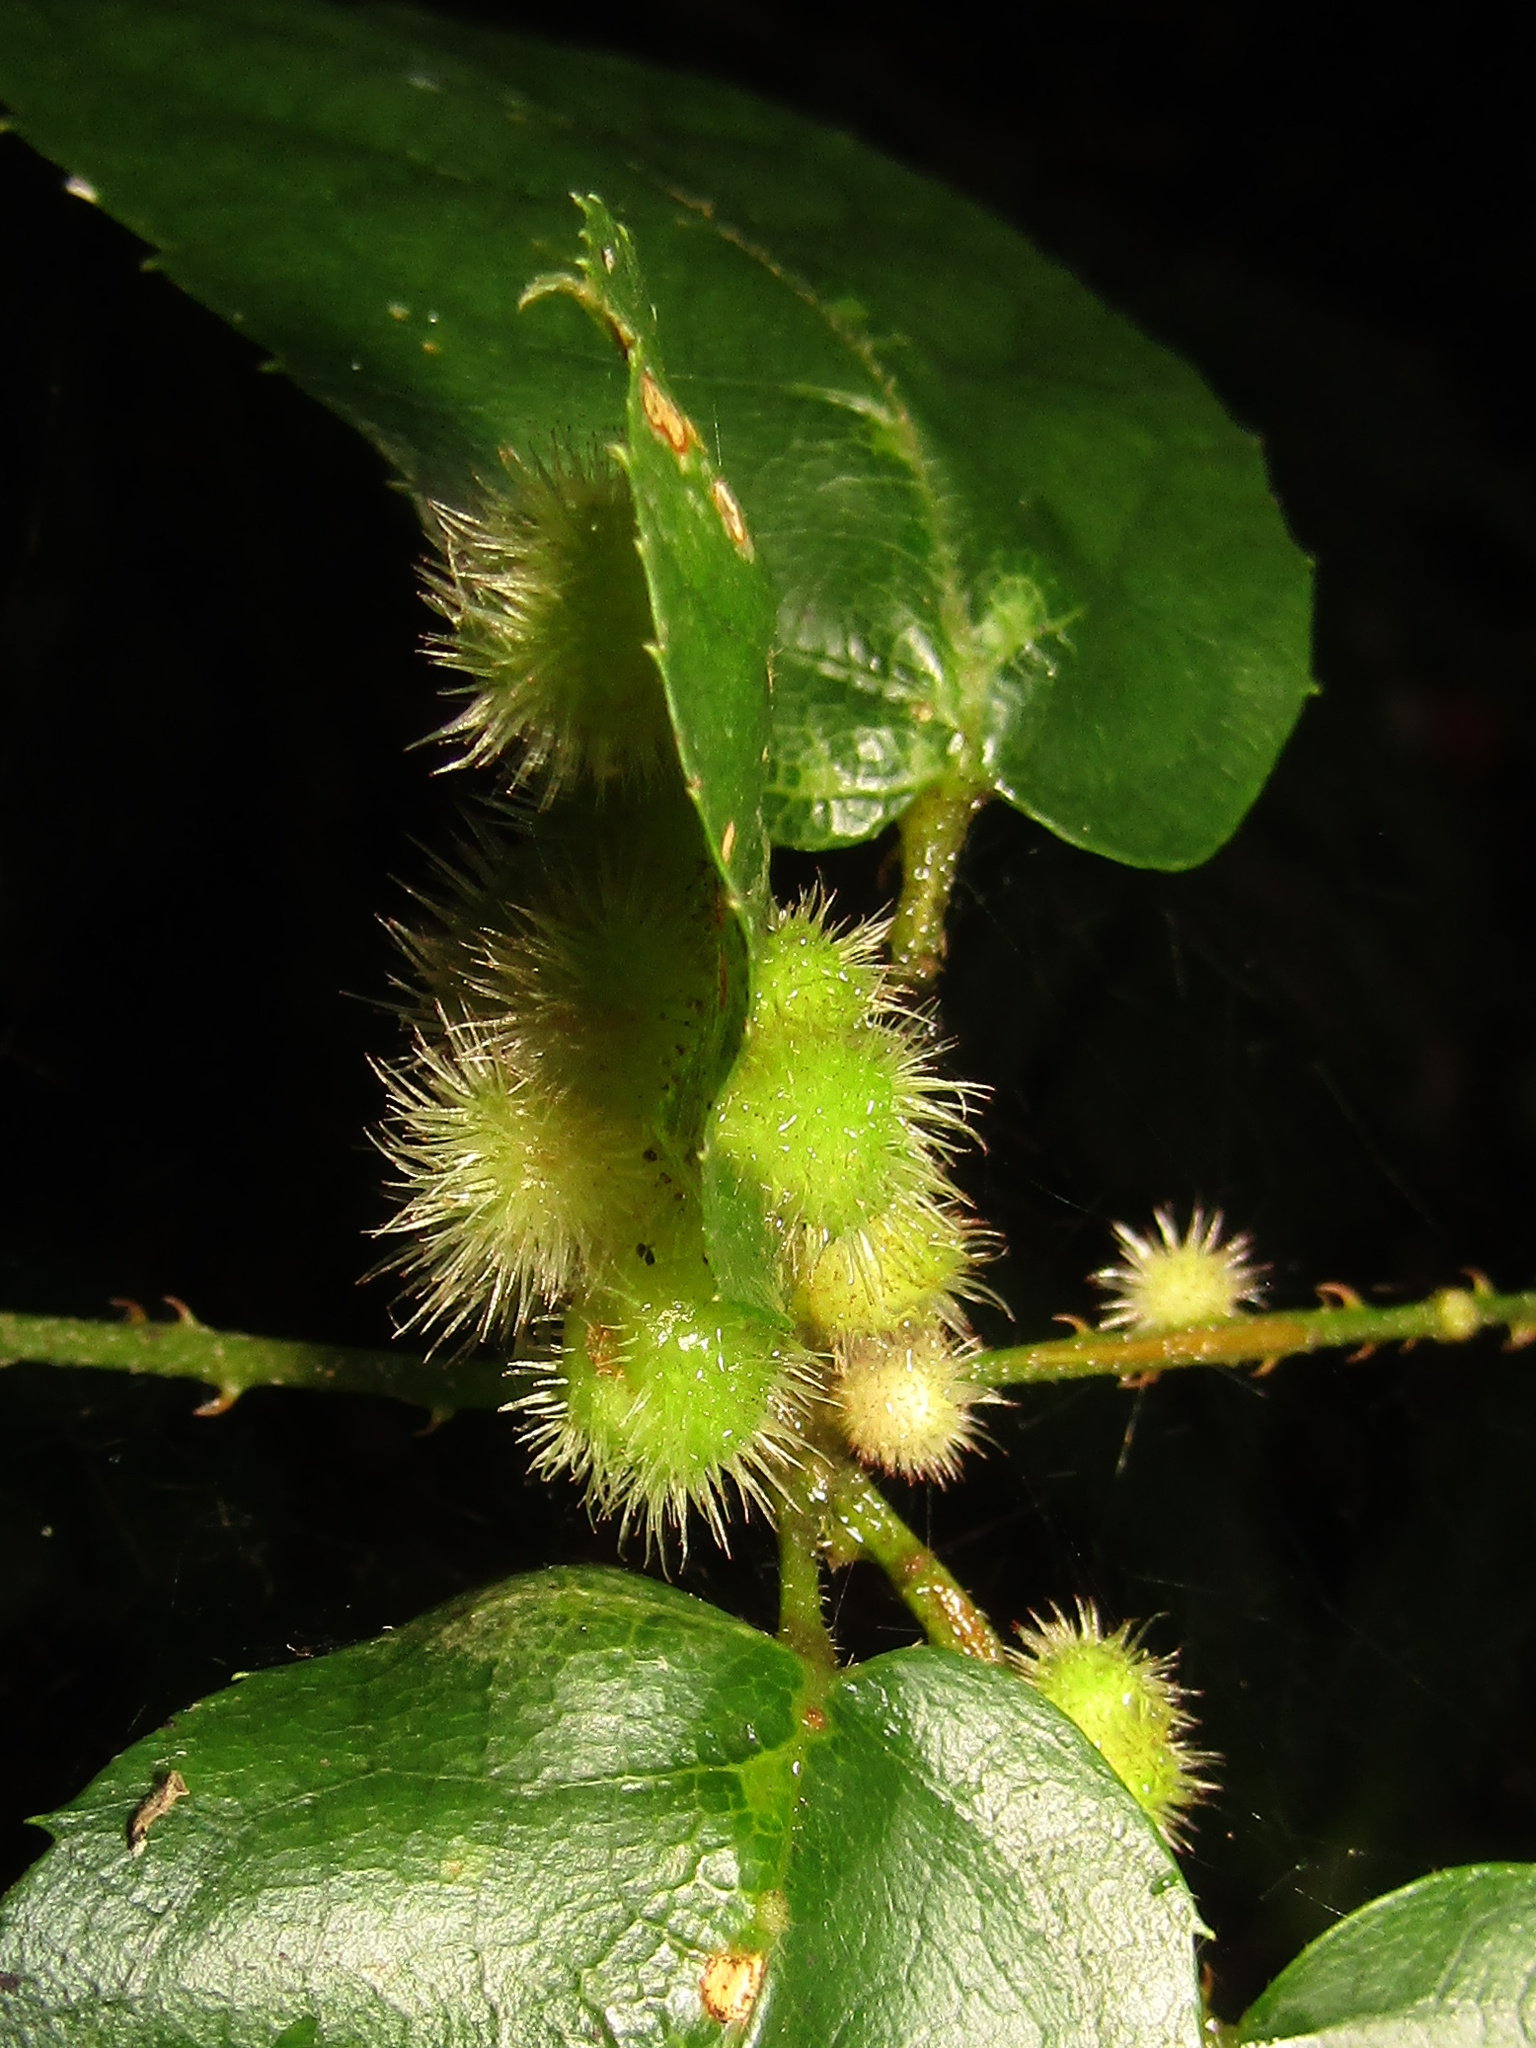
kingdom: Animalia
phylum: Arthropoda
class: Insecta
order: Diptera
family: Cecidomyiidae
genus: Psephodiplosis
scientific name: Psephodiplosis rubi
